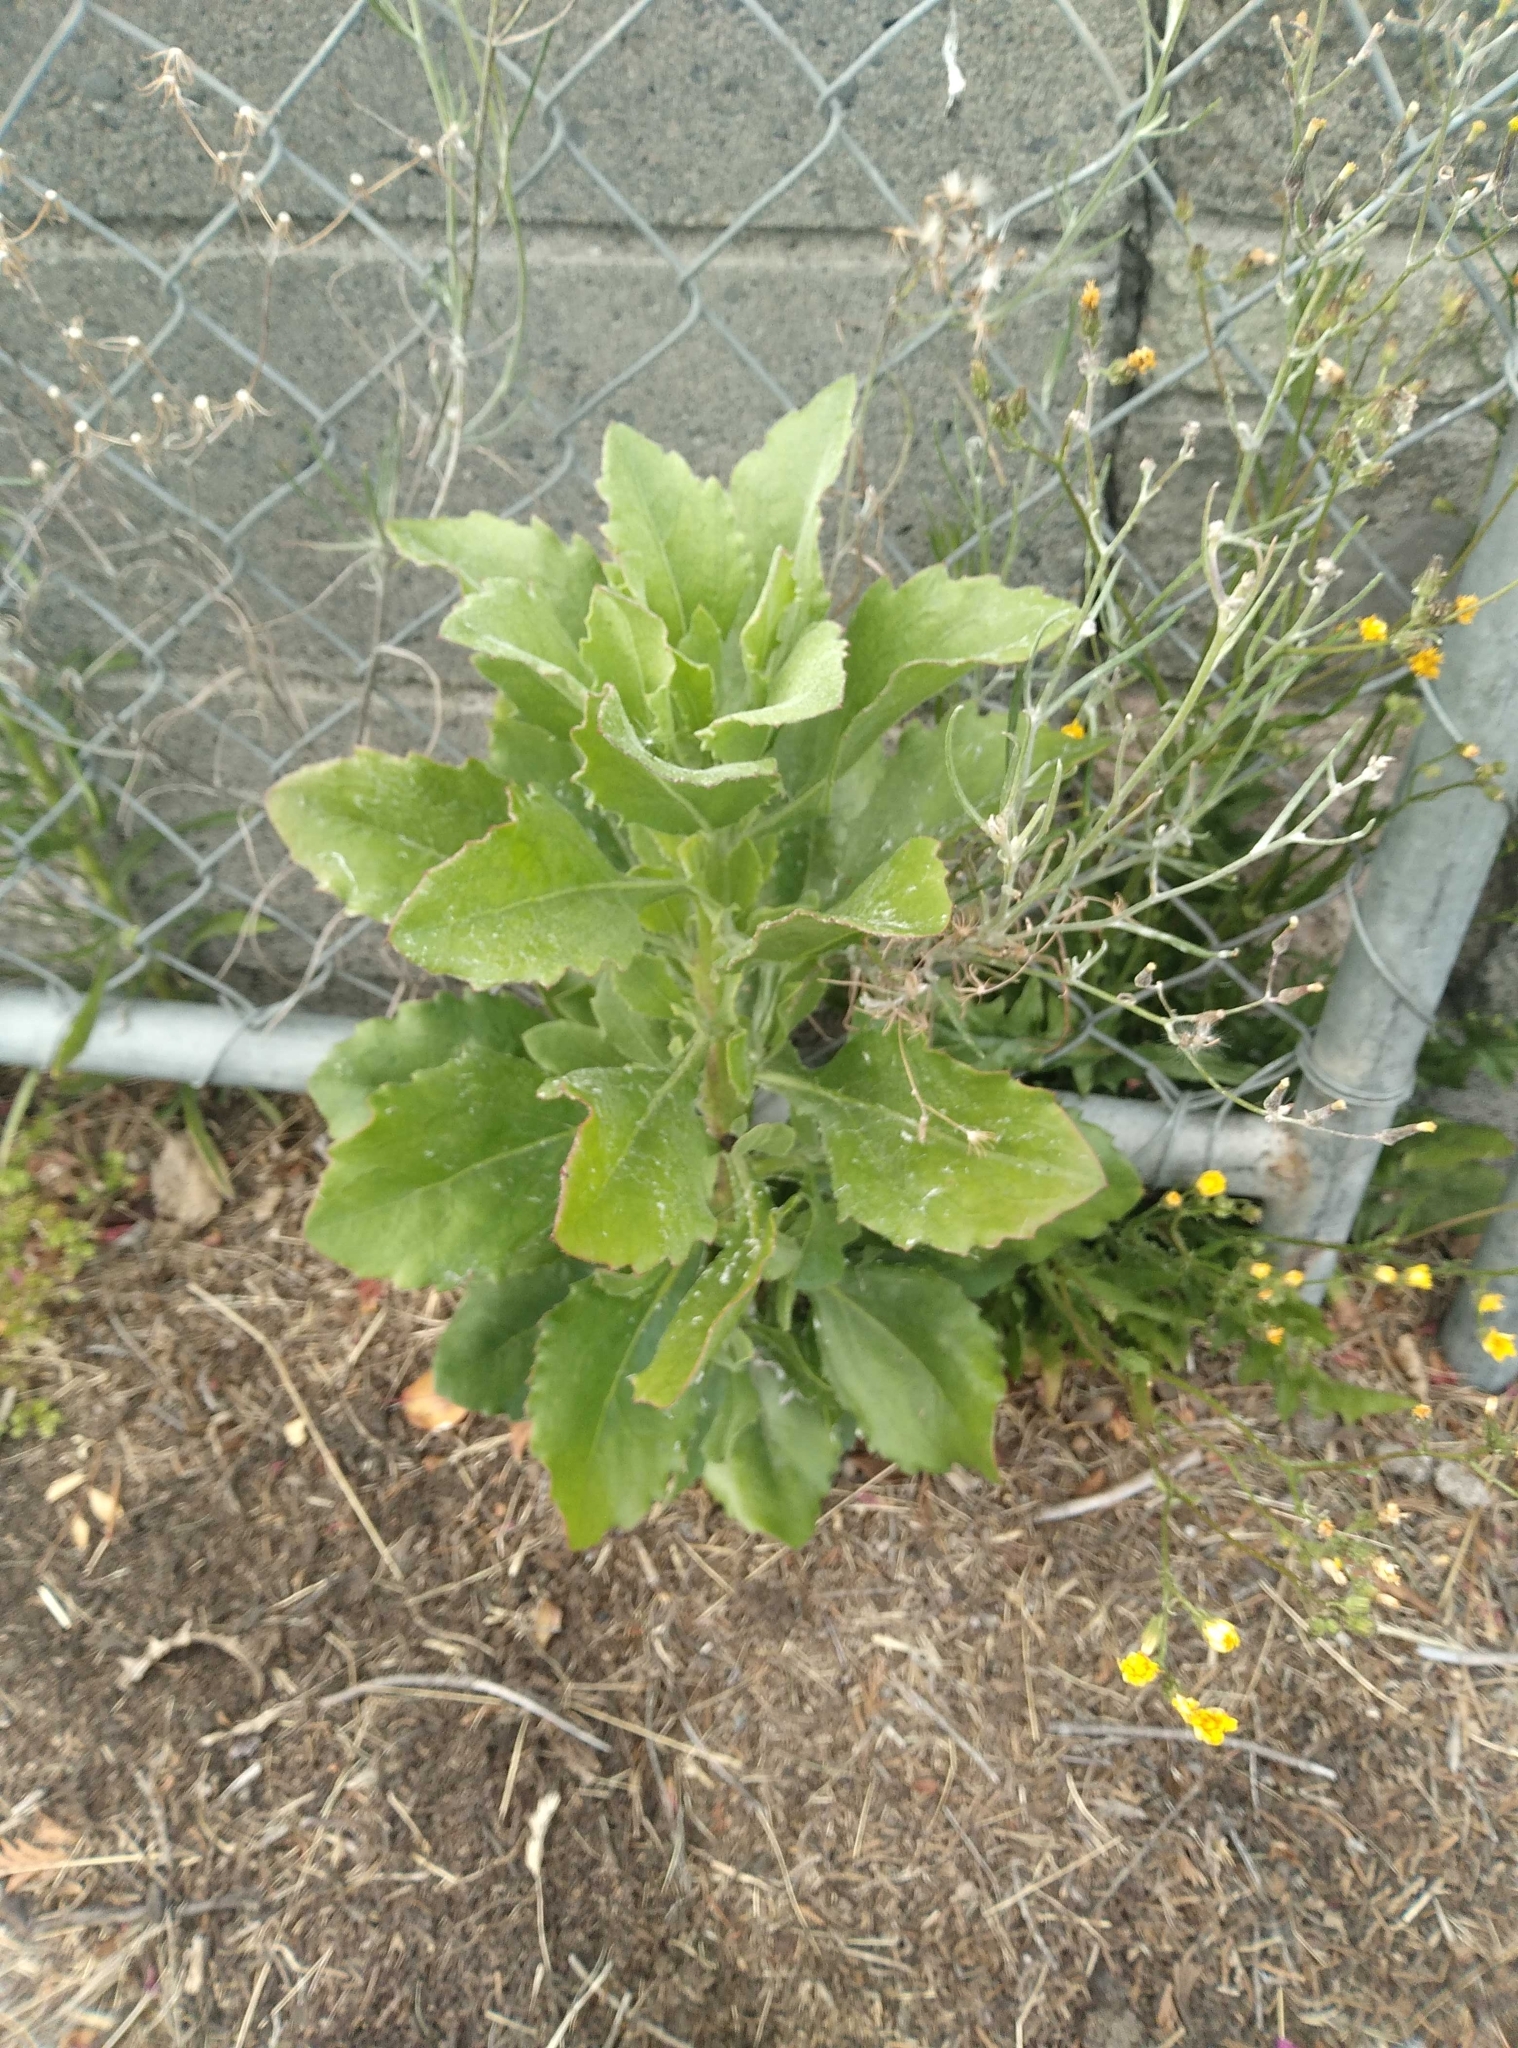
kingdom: Plantae
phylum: Tracheophyta
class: Magnoliopsida
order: Asterales
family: Asteraceae
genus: Osteospermum
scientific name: Osteospermum moniliferum
